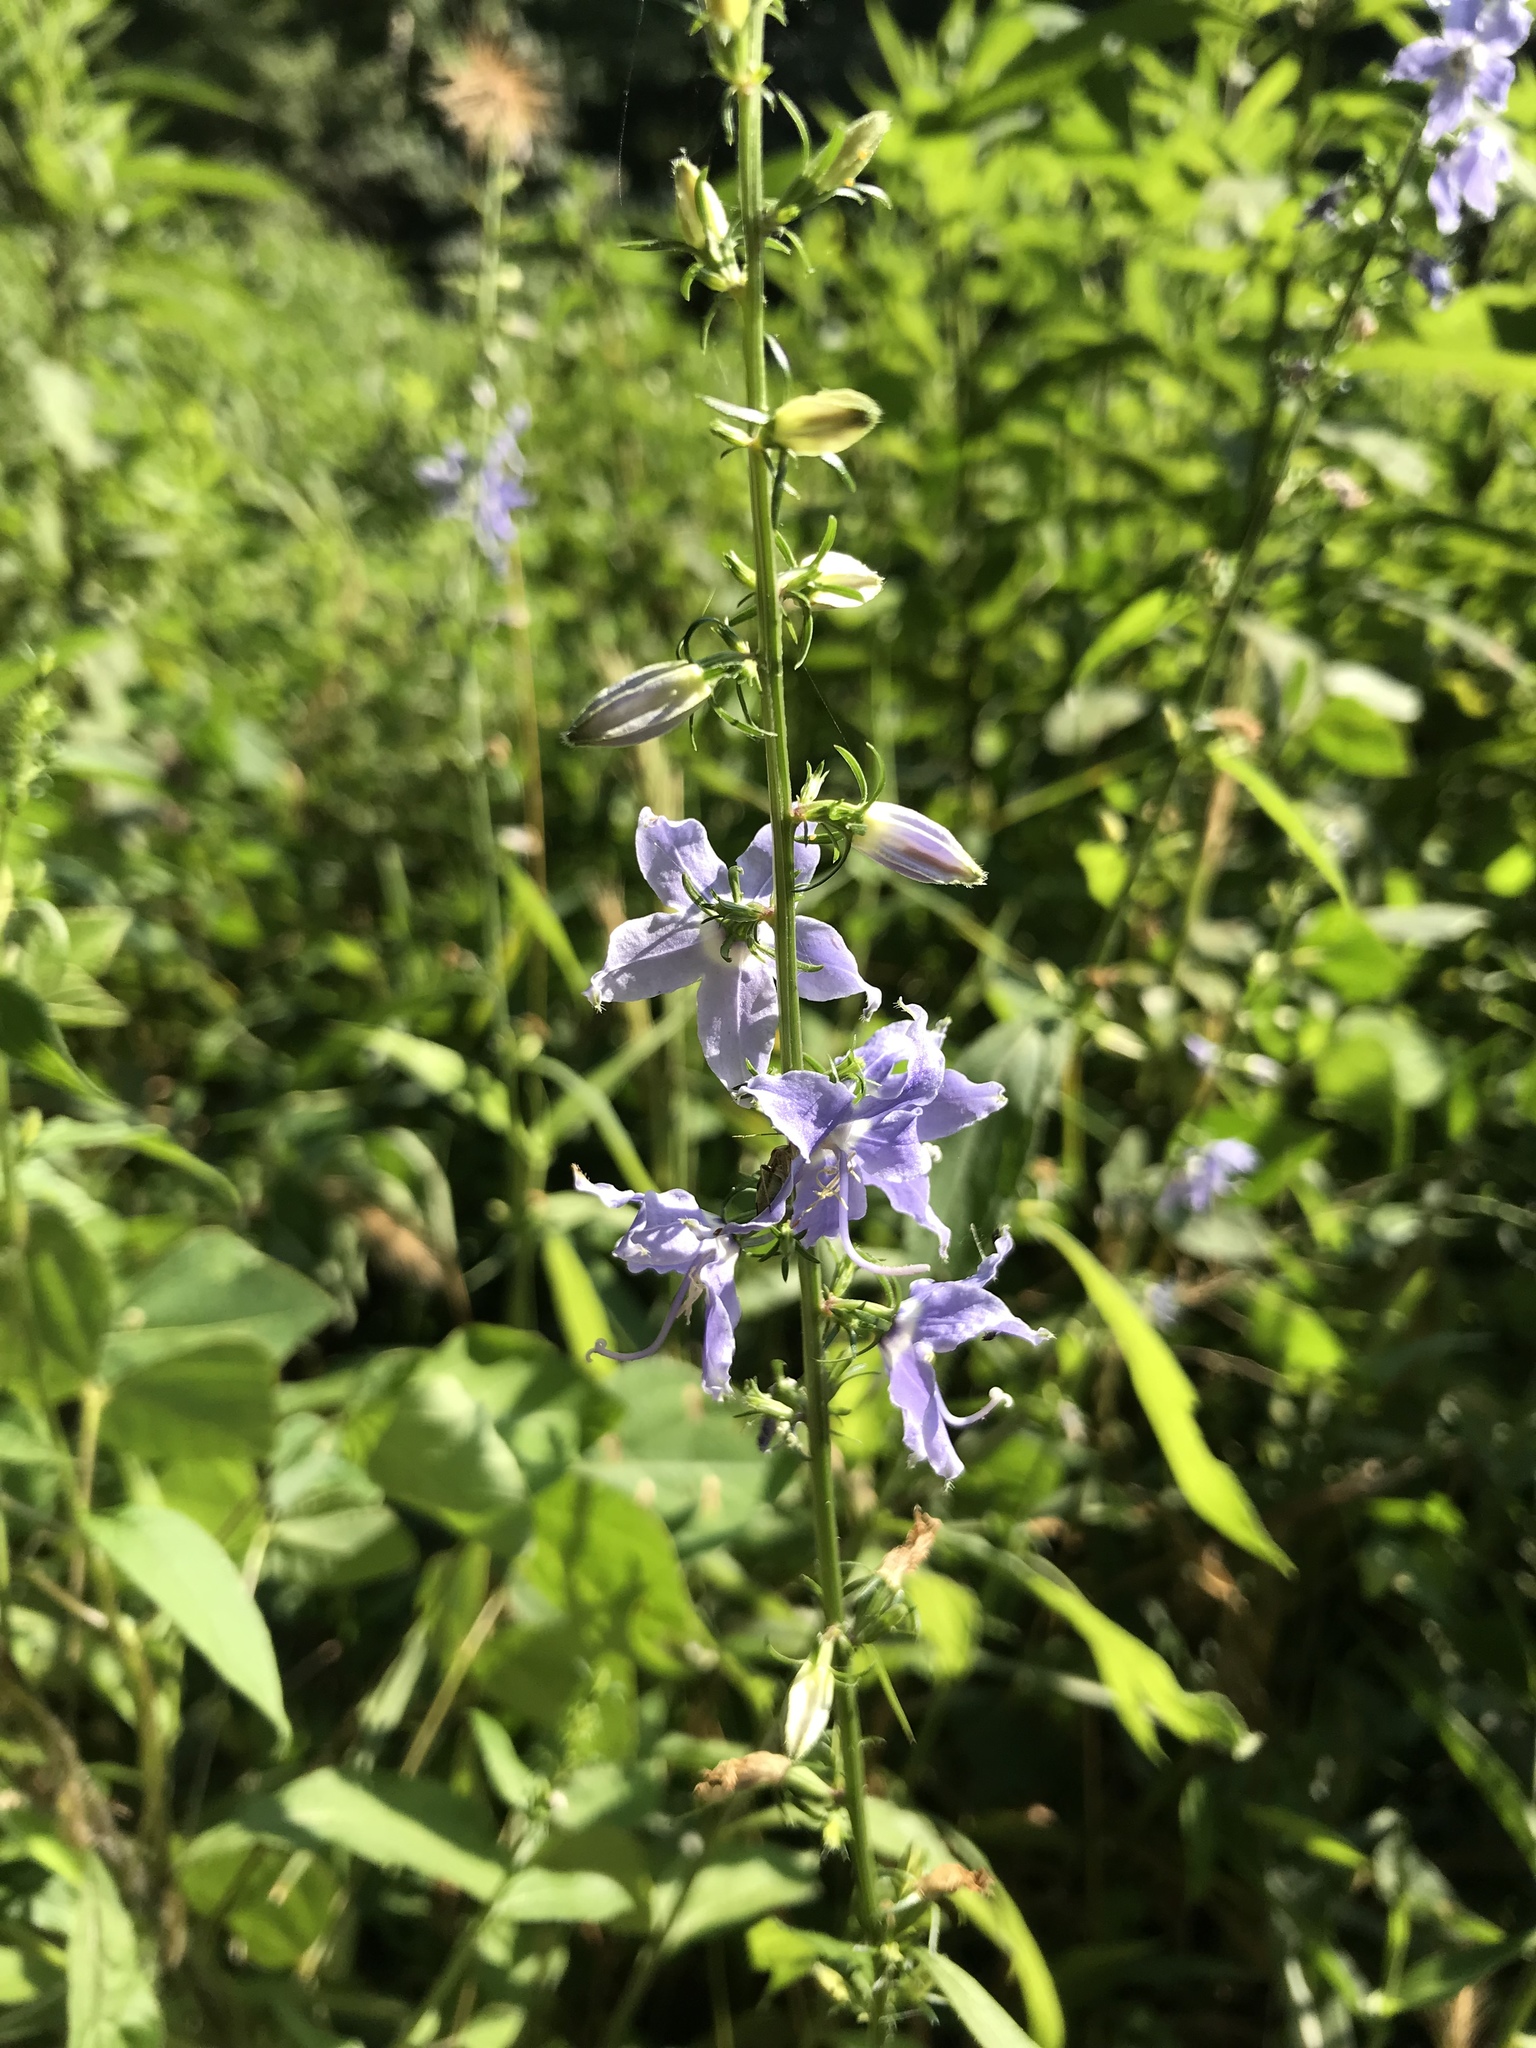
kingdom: Plantae
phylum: Tracheophyta
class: Magnoliopsida
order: Asterales
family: Campanulaceae
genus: Campanulastrum
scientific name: Campanulastrum americanum
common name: American bellflower
